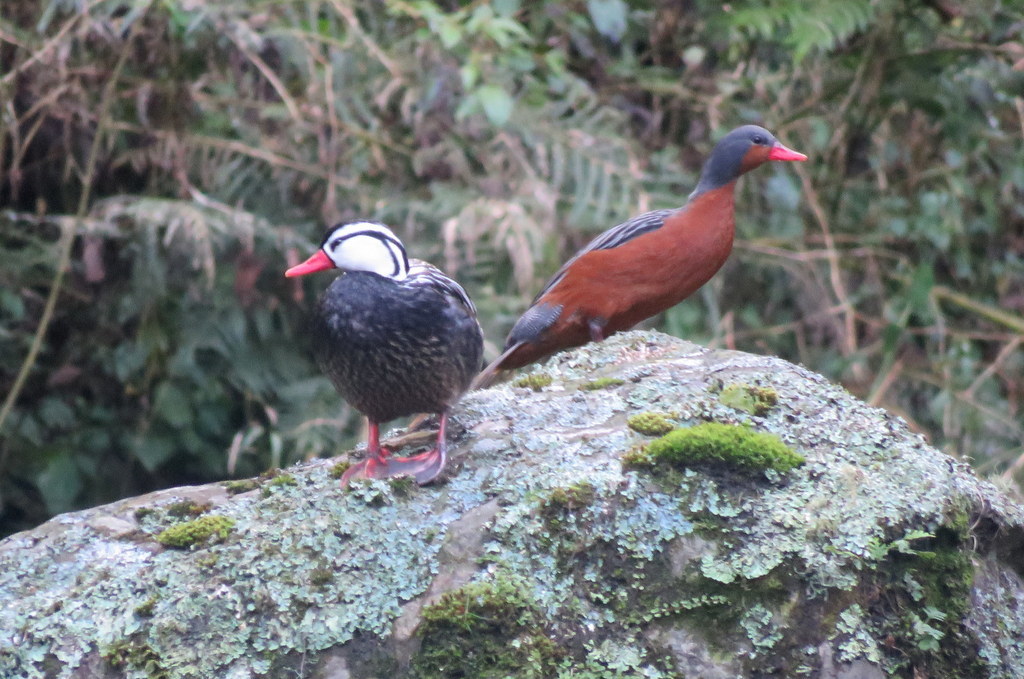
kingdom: Animalia
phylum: Chordata
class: Aves
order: Anseriformes
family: Anatidae
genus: Merganetta
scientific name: Merganetta armata
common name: Torrent duck
